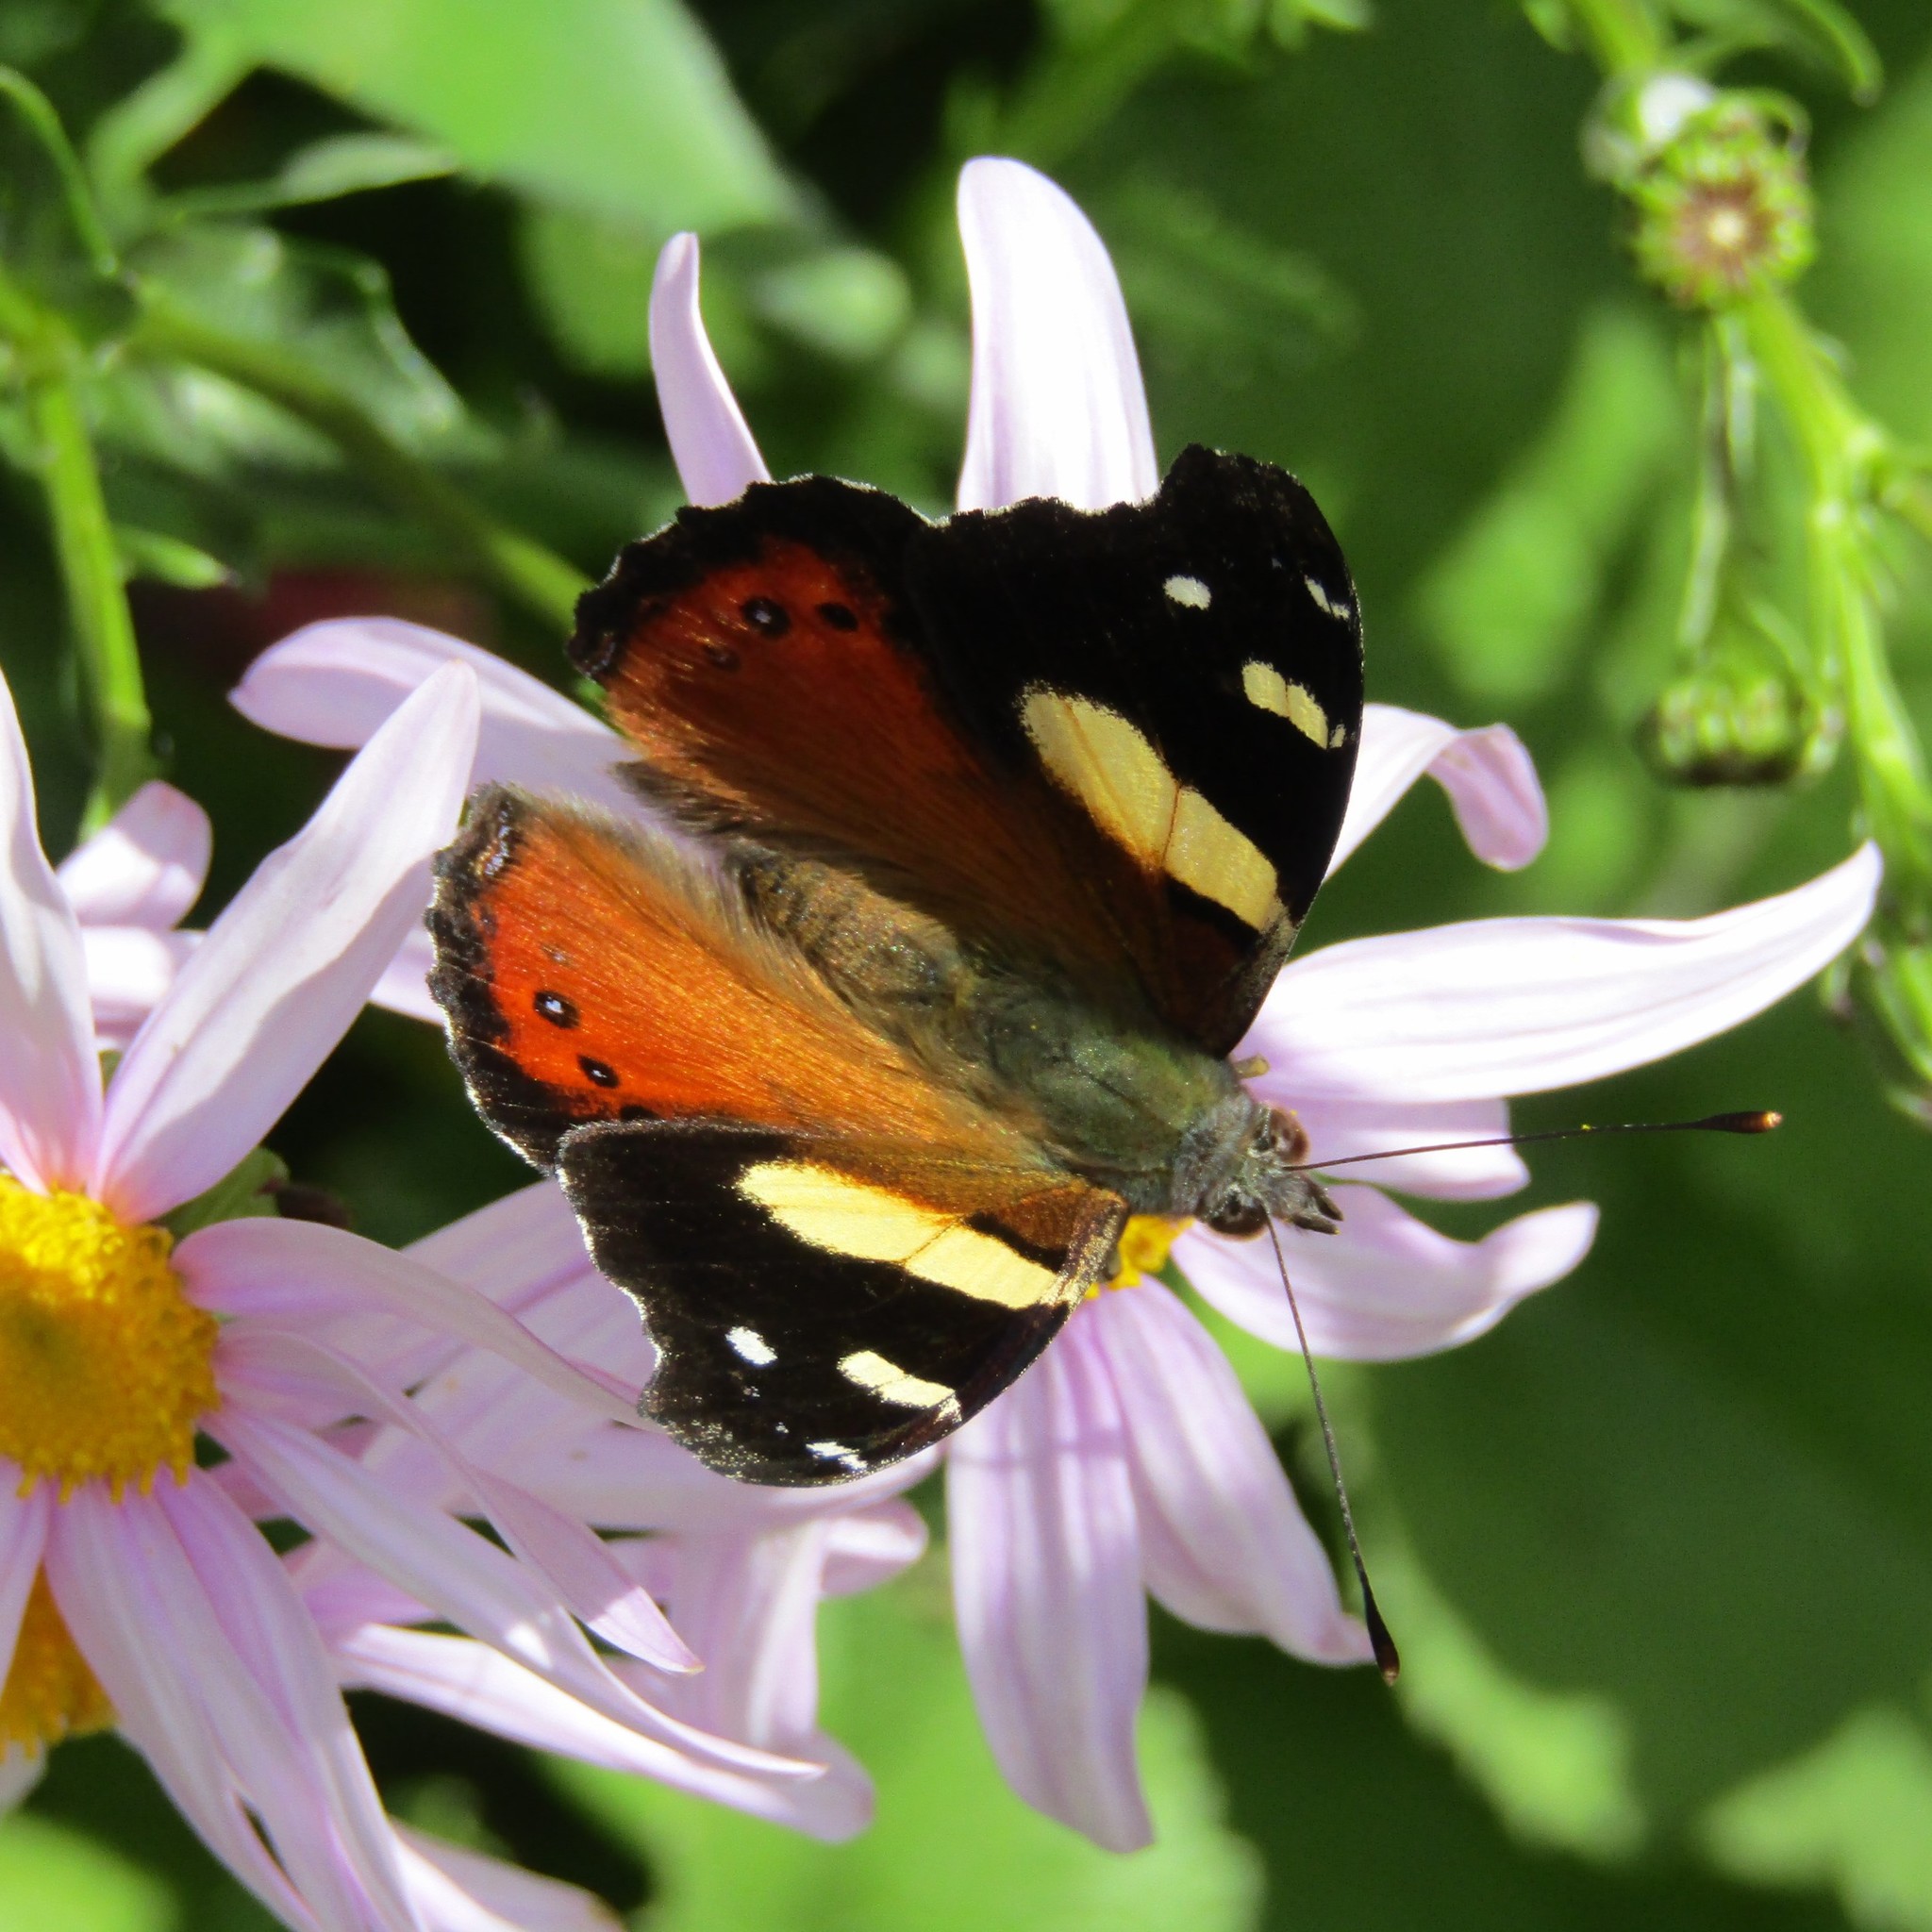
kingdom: Animalia
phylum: Arthropoda
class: Insecta
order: Lepidoptera
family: Nymphalidae
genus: Vanessa
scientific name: Vanessa itea
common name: Yellow admiral
